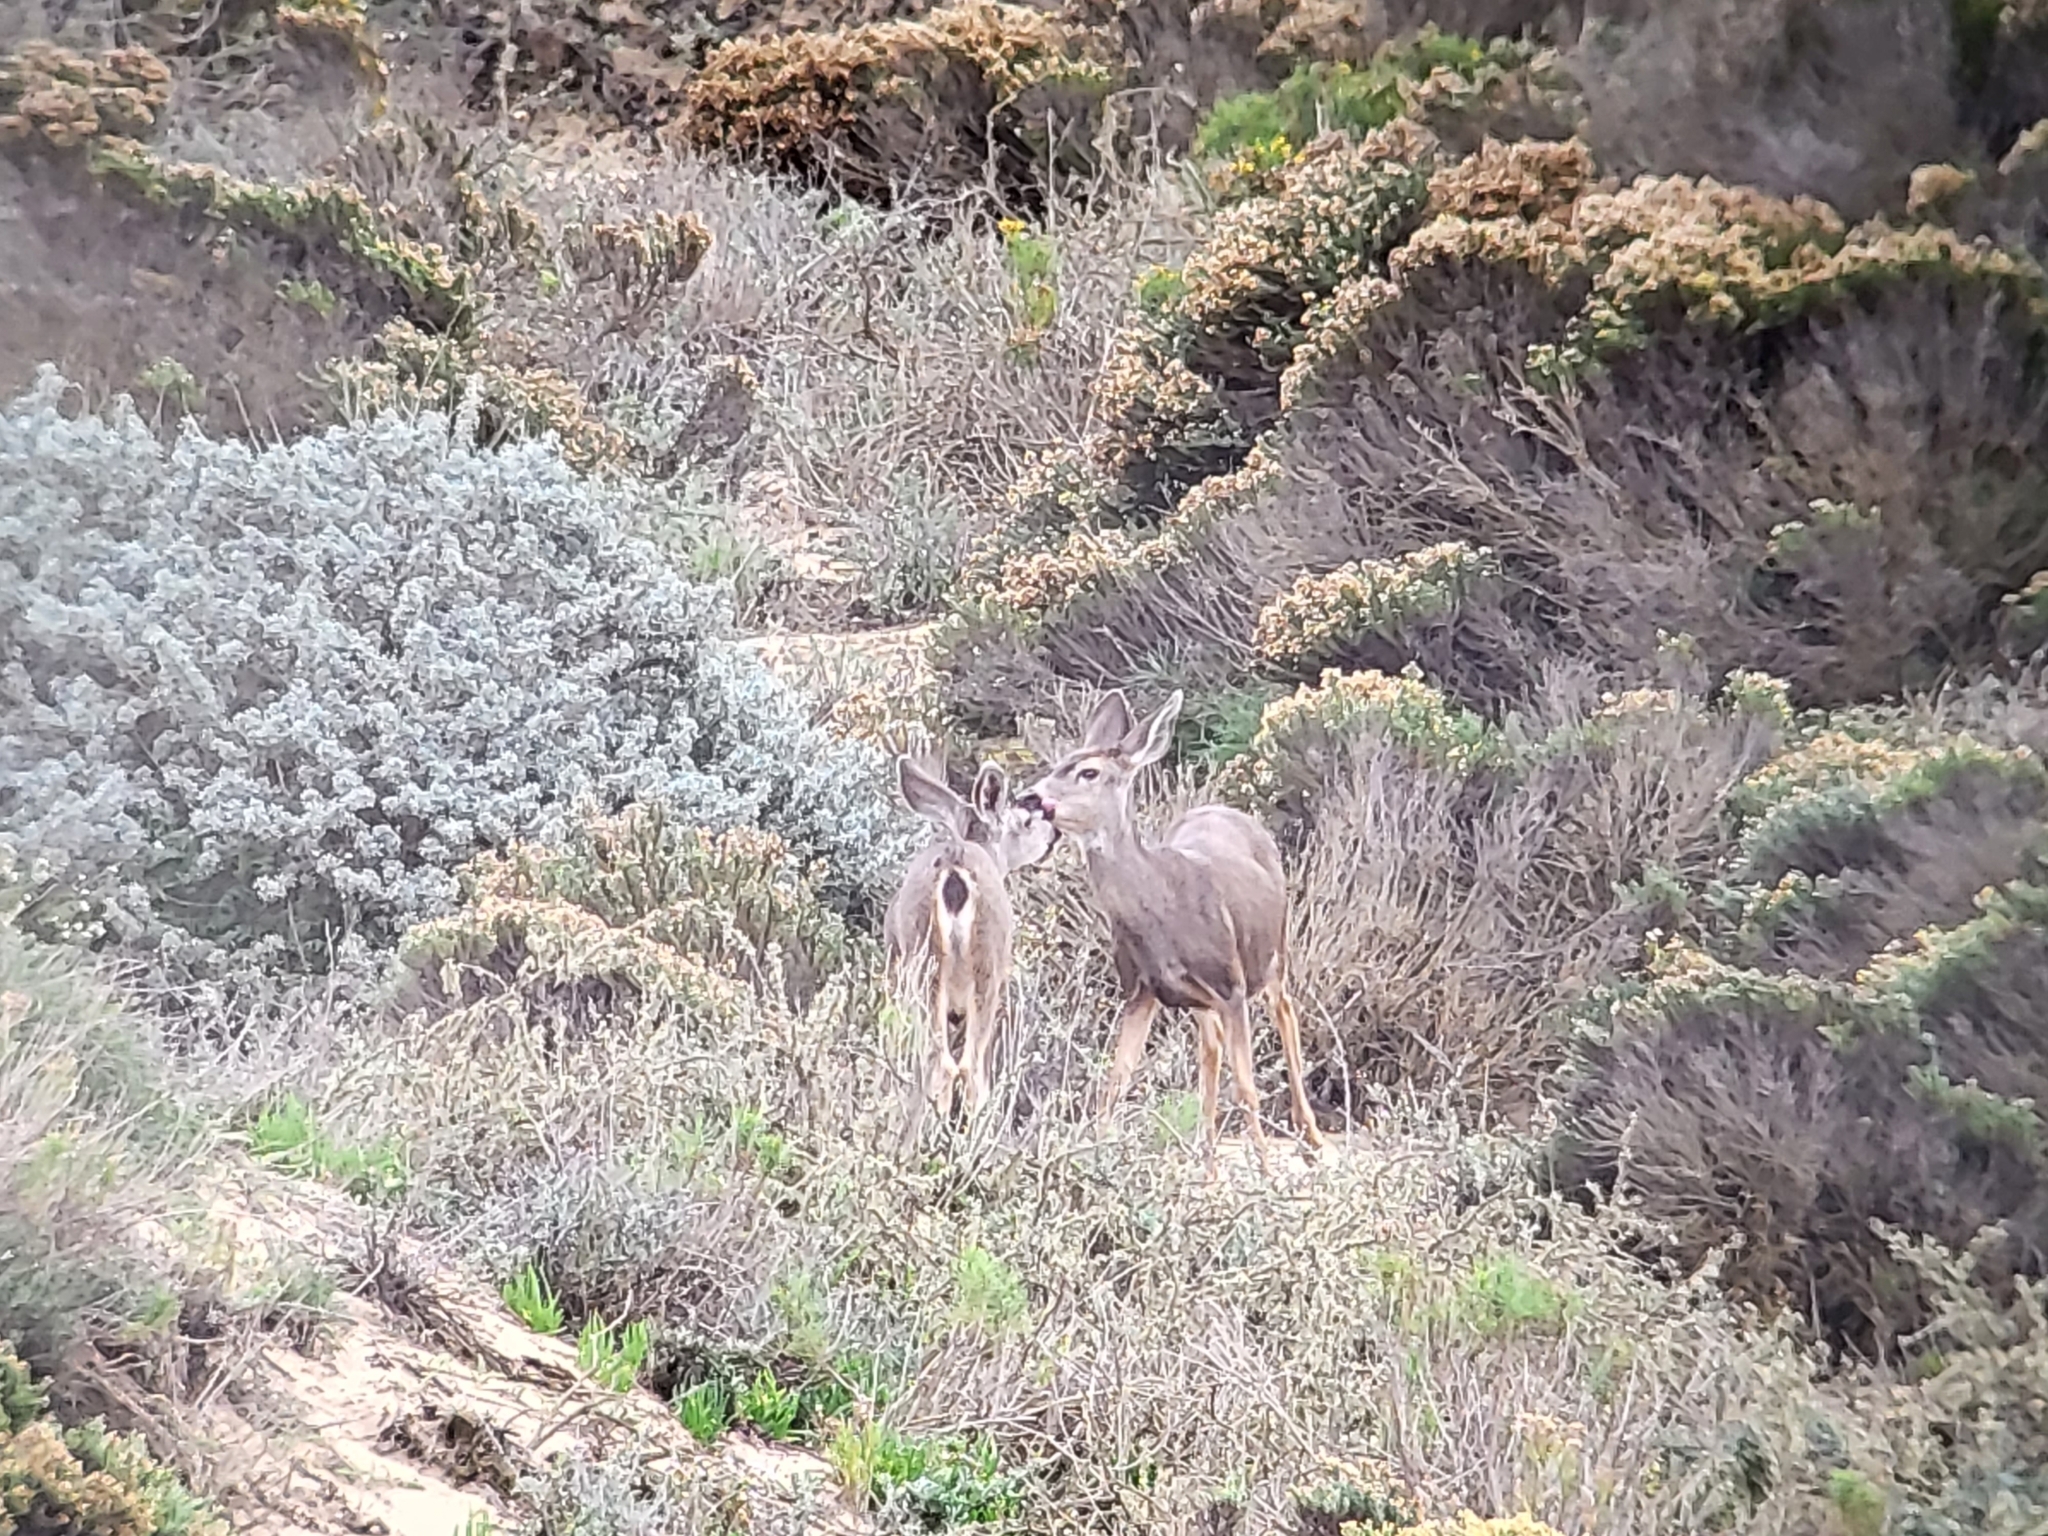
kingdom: Animalia
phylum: Chordata
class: Mammalia
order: Artiodactyla
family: Cervidae
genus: Odocoileus
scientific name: Odocoileus hemionus
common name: Mule deer
